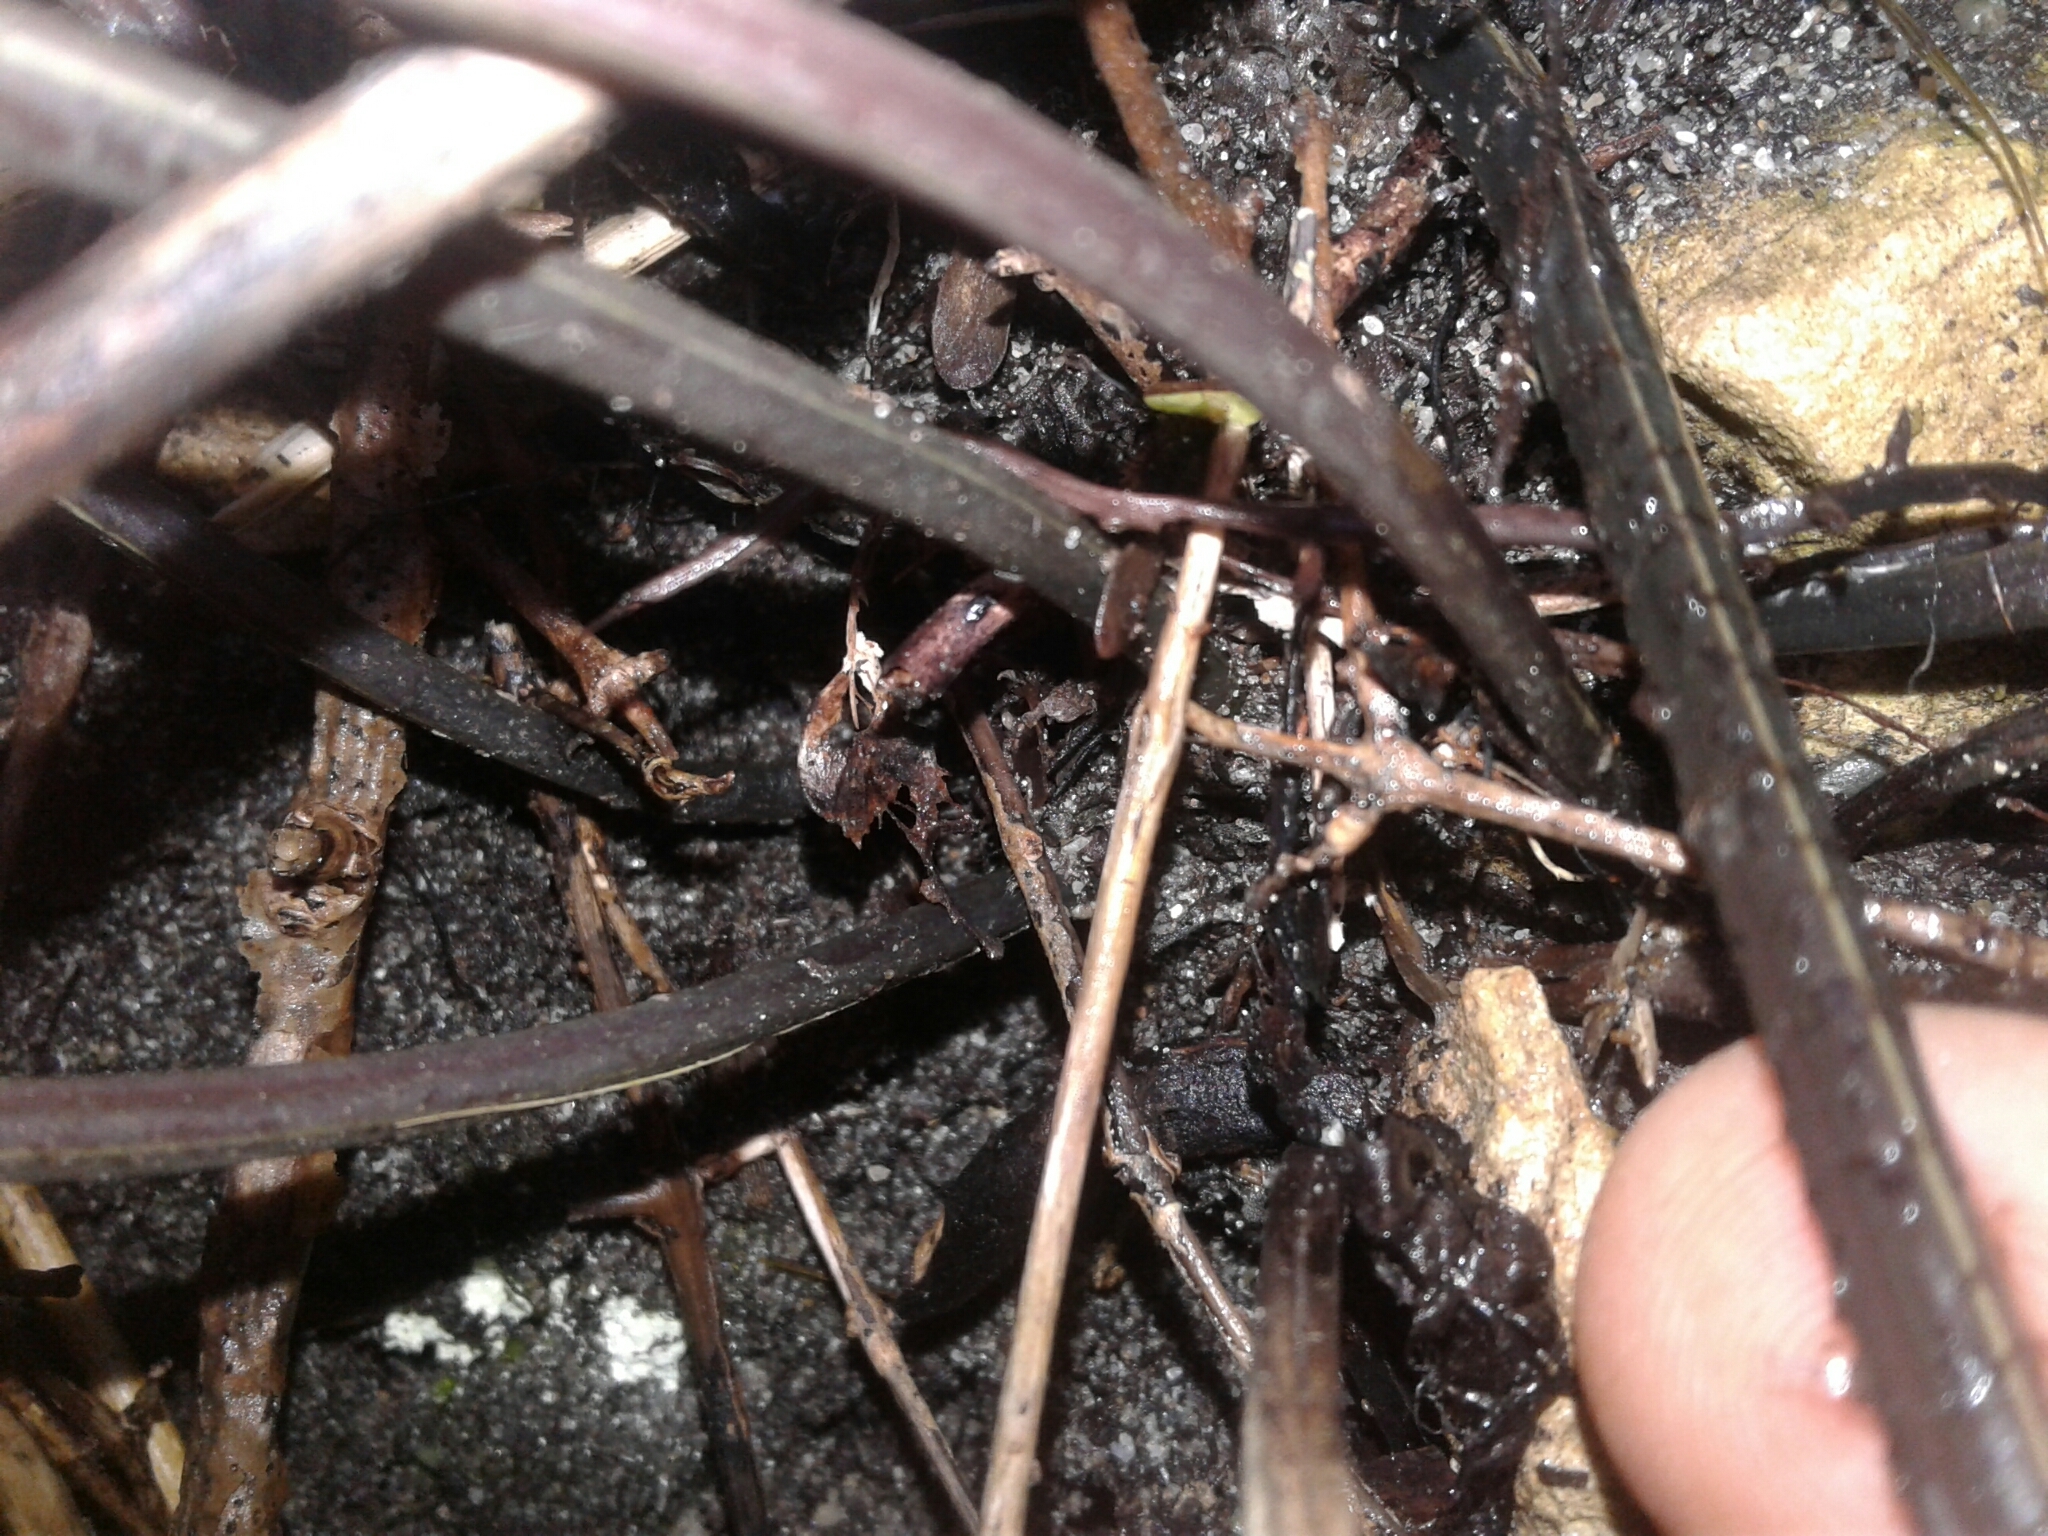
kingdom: Plantae
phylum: Tracheophyta
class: Polypodiopsida
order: Polypodiales
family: Aspleniaceae
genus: Asplenium
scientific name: Asplenium obtusatum
